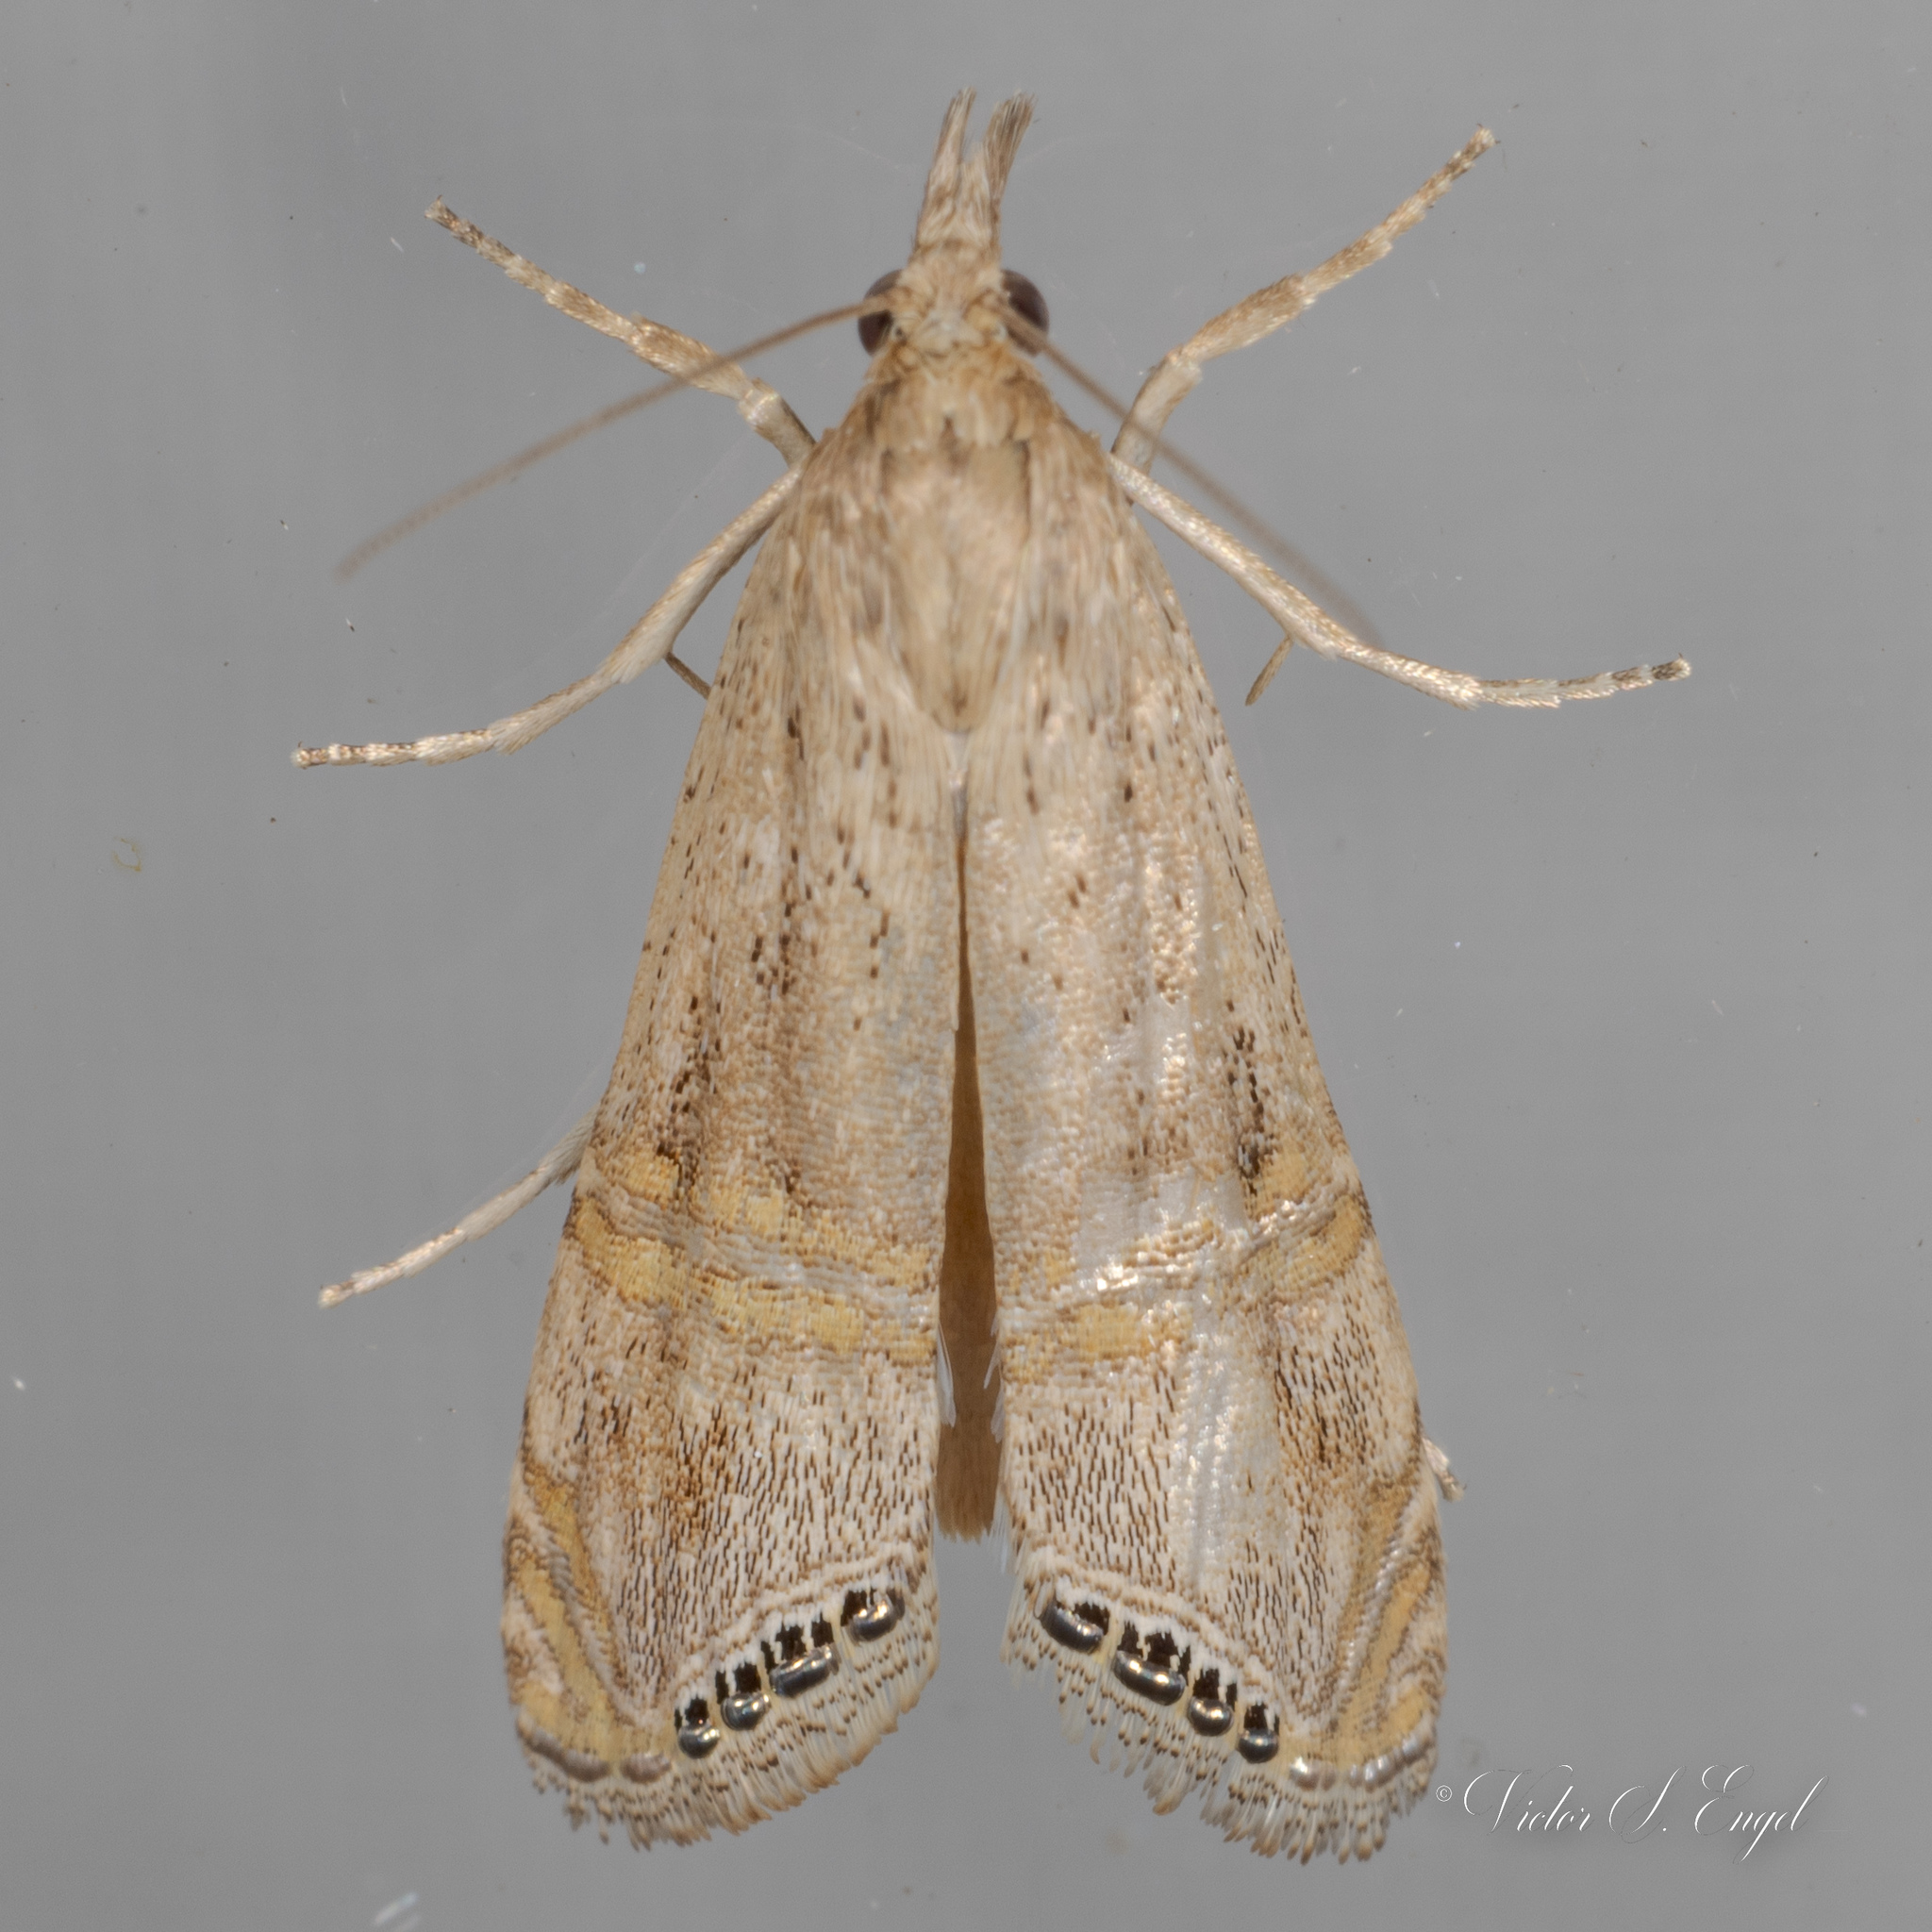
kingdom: Animalia
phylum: Arthropoda
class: Insecta
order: Lepidoptera
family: Crambidae
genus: Euchromius
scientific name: Euchromius ocellea
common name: Necklace veneer moth
